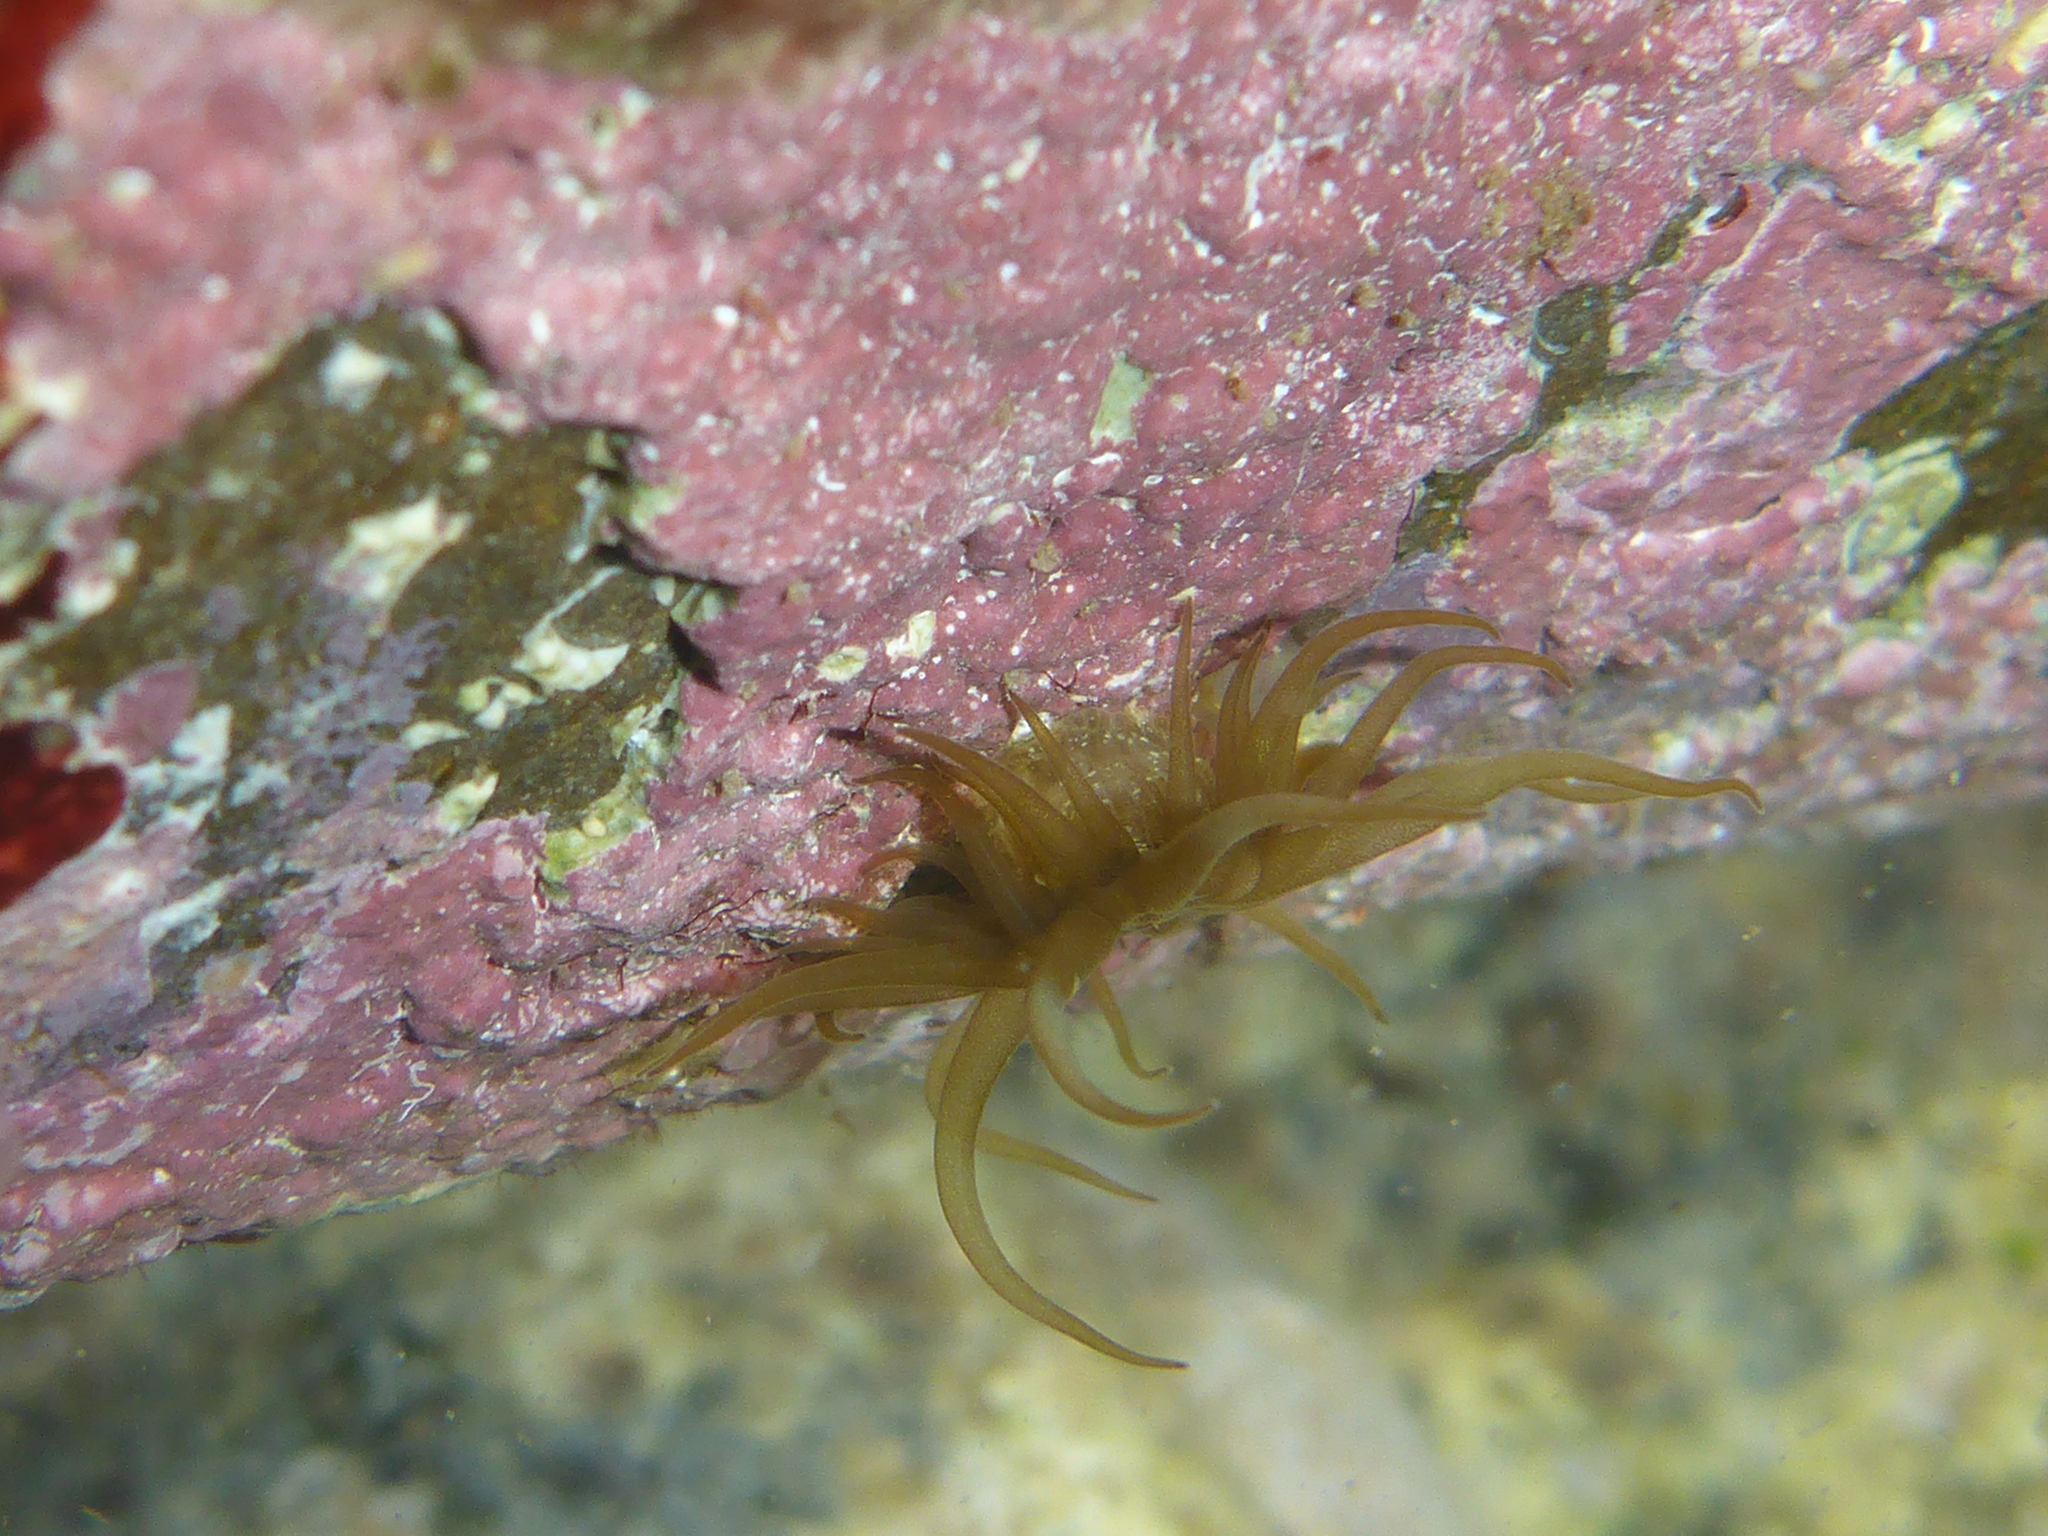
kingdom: Animalia
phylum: Cnidaria
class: Anthozoa
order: Actiniaria
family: Aiptasiidae
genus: Exaiptasia
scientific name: Exaiptasia diaphana
